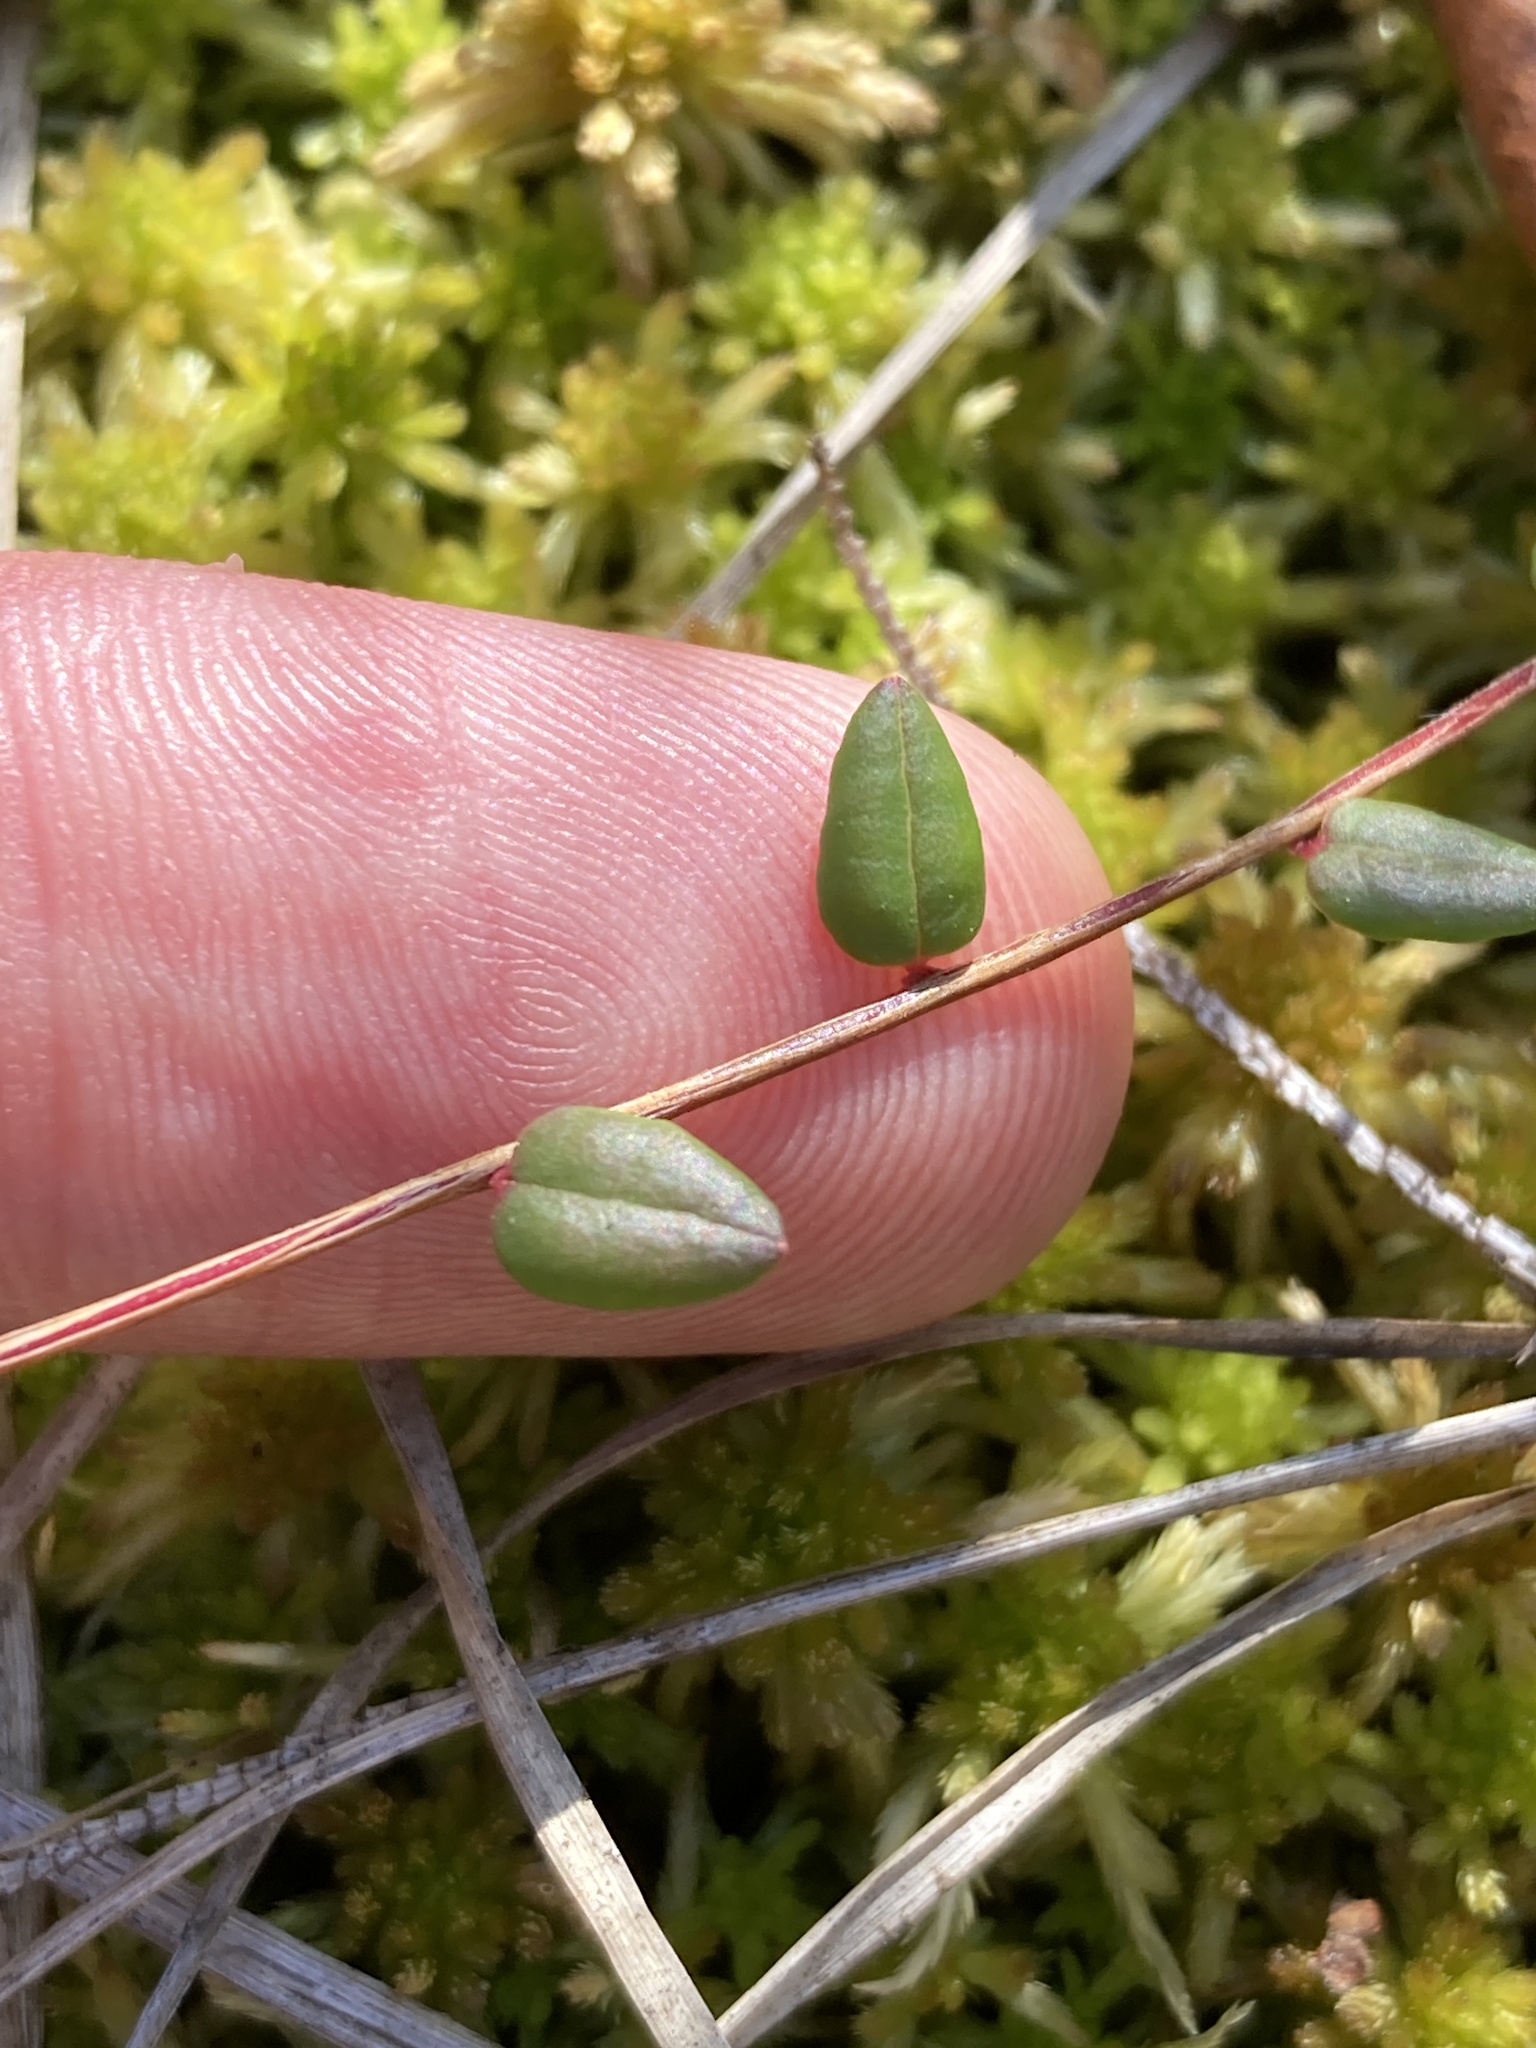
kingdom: Plantae
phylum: Tracheophyta
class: Magnoliopsida
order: Ericales
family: Ericaceae
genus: Vaccinium
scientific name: Vaccinium oxycoccos
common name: Cranberry
